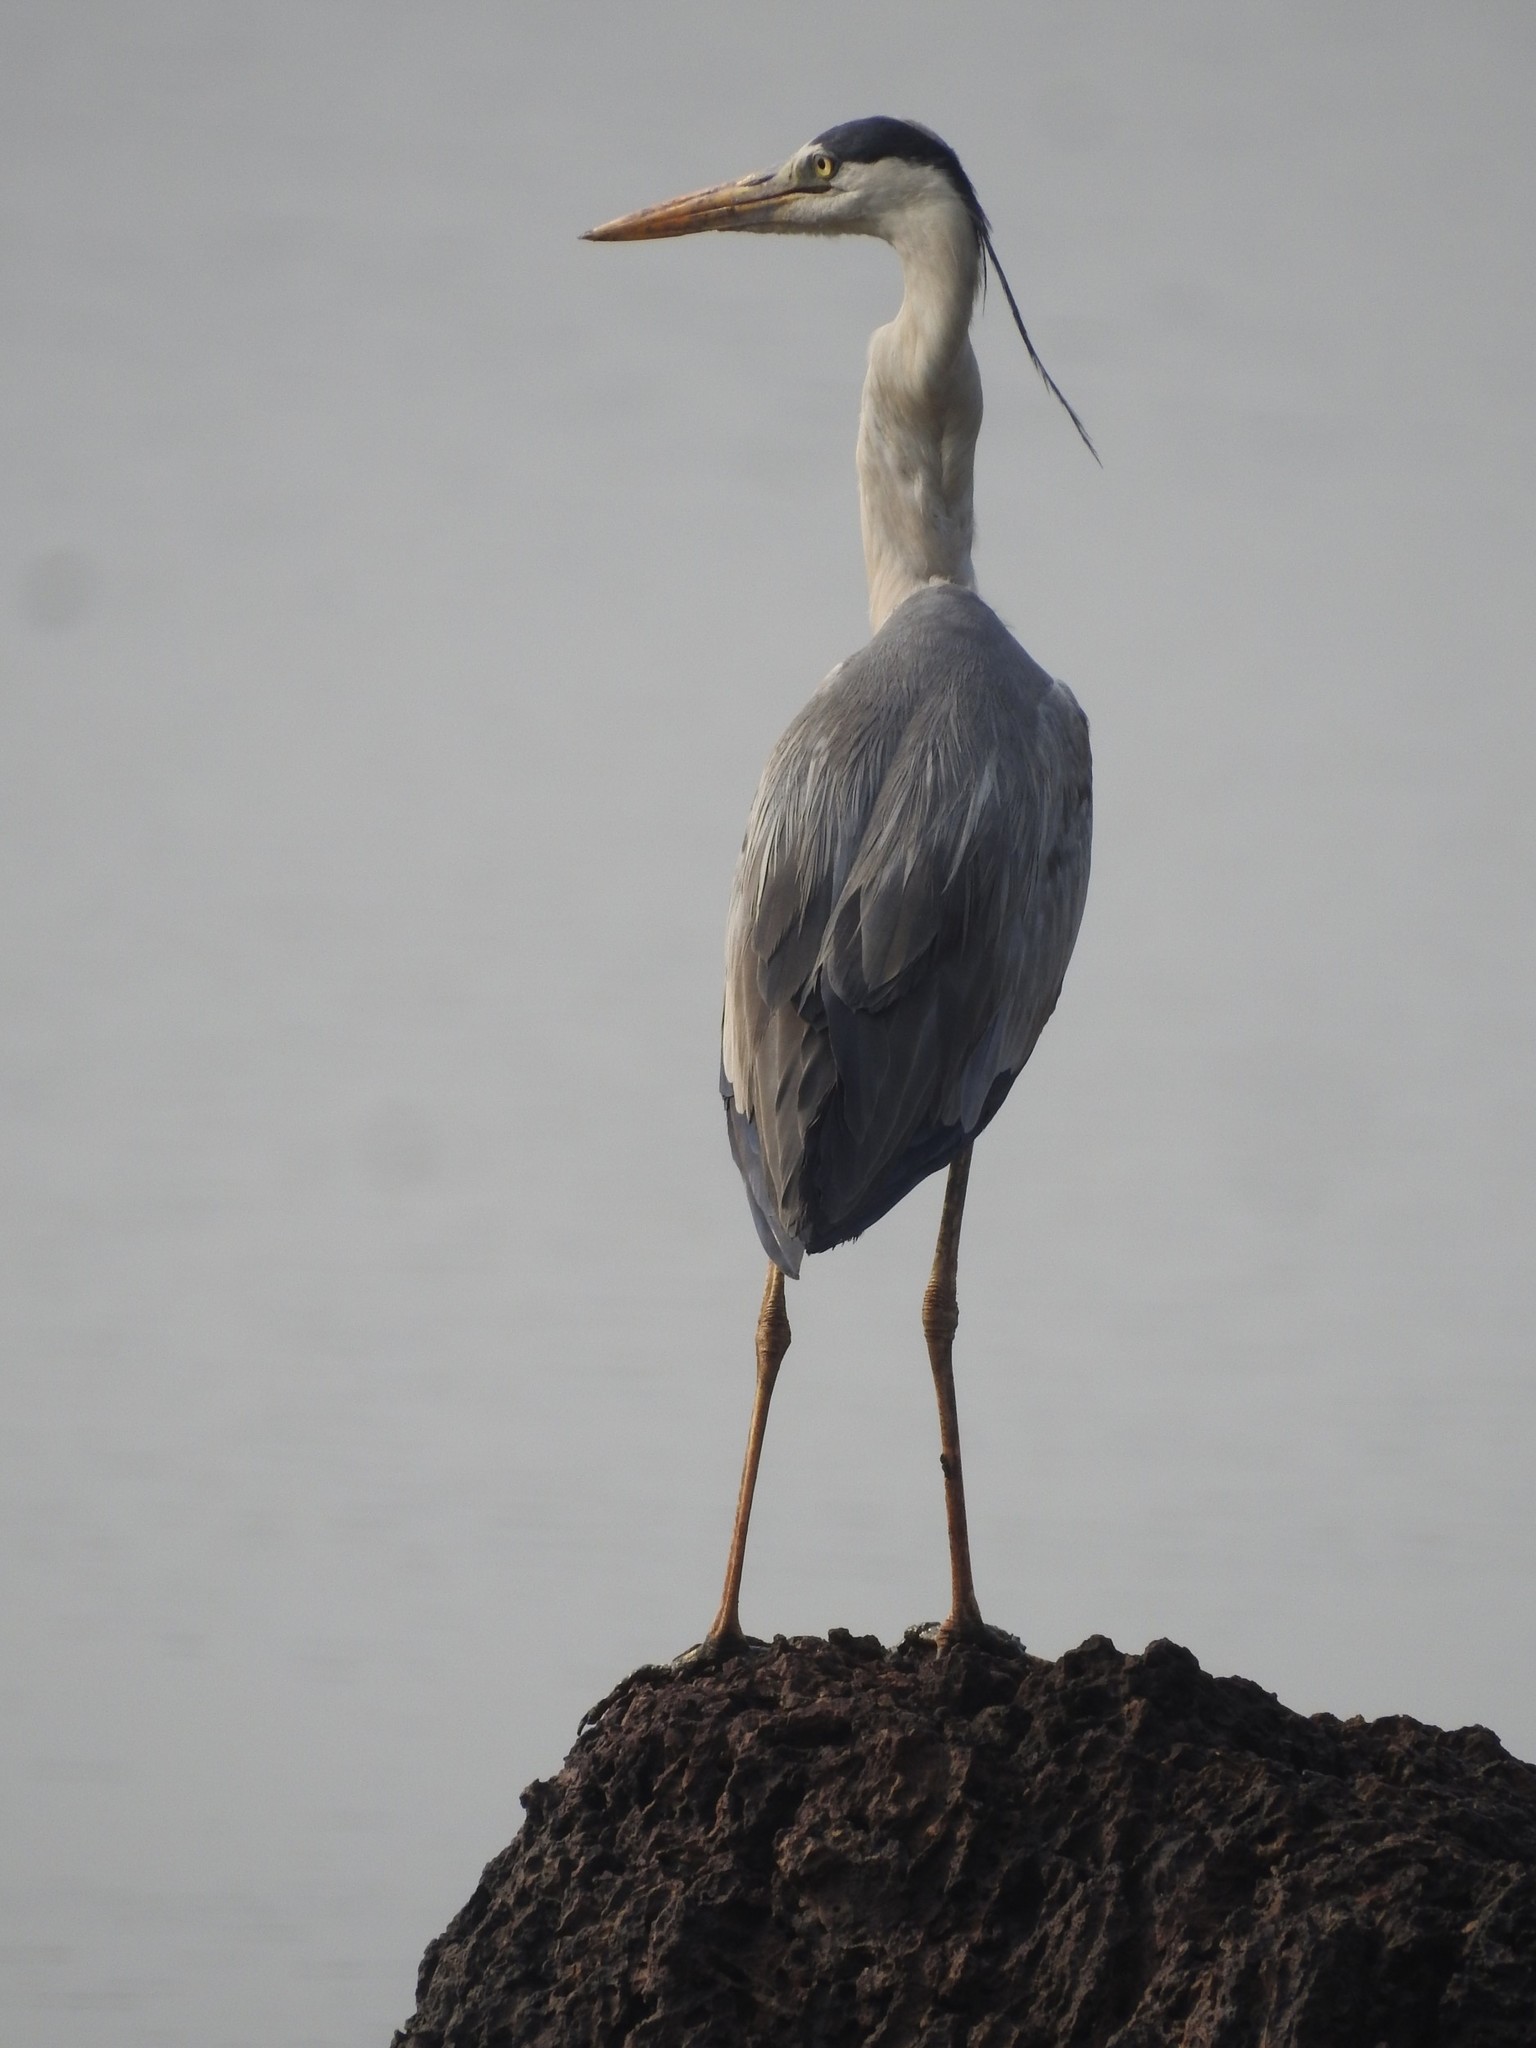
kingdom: Animalia
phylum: Chordata
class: Aves
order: Pelecaniformes
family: Ardeidae
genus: Ardea
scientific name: Ardea cinerea
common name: Grey heron
